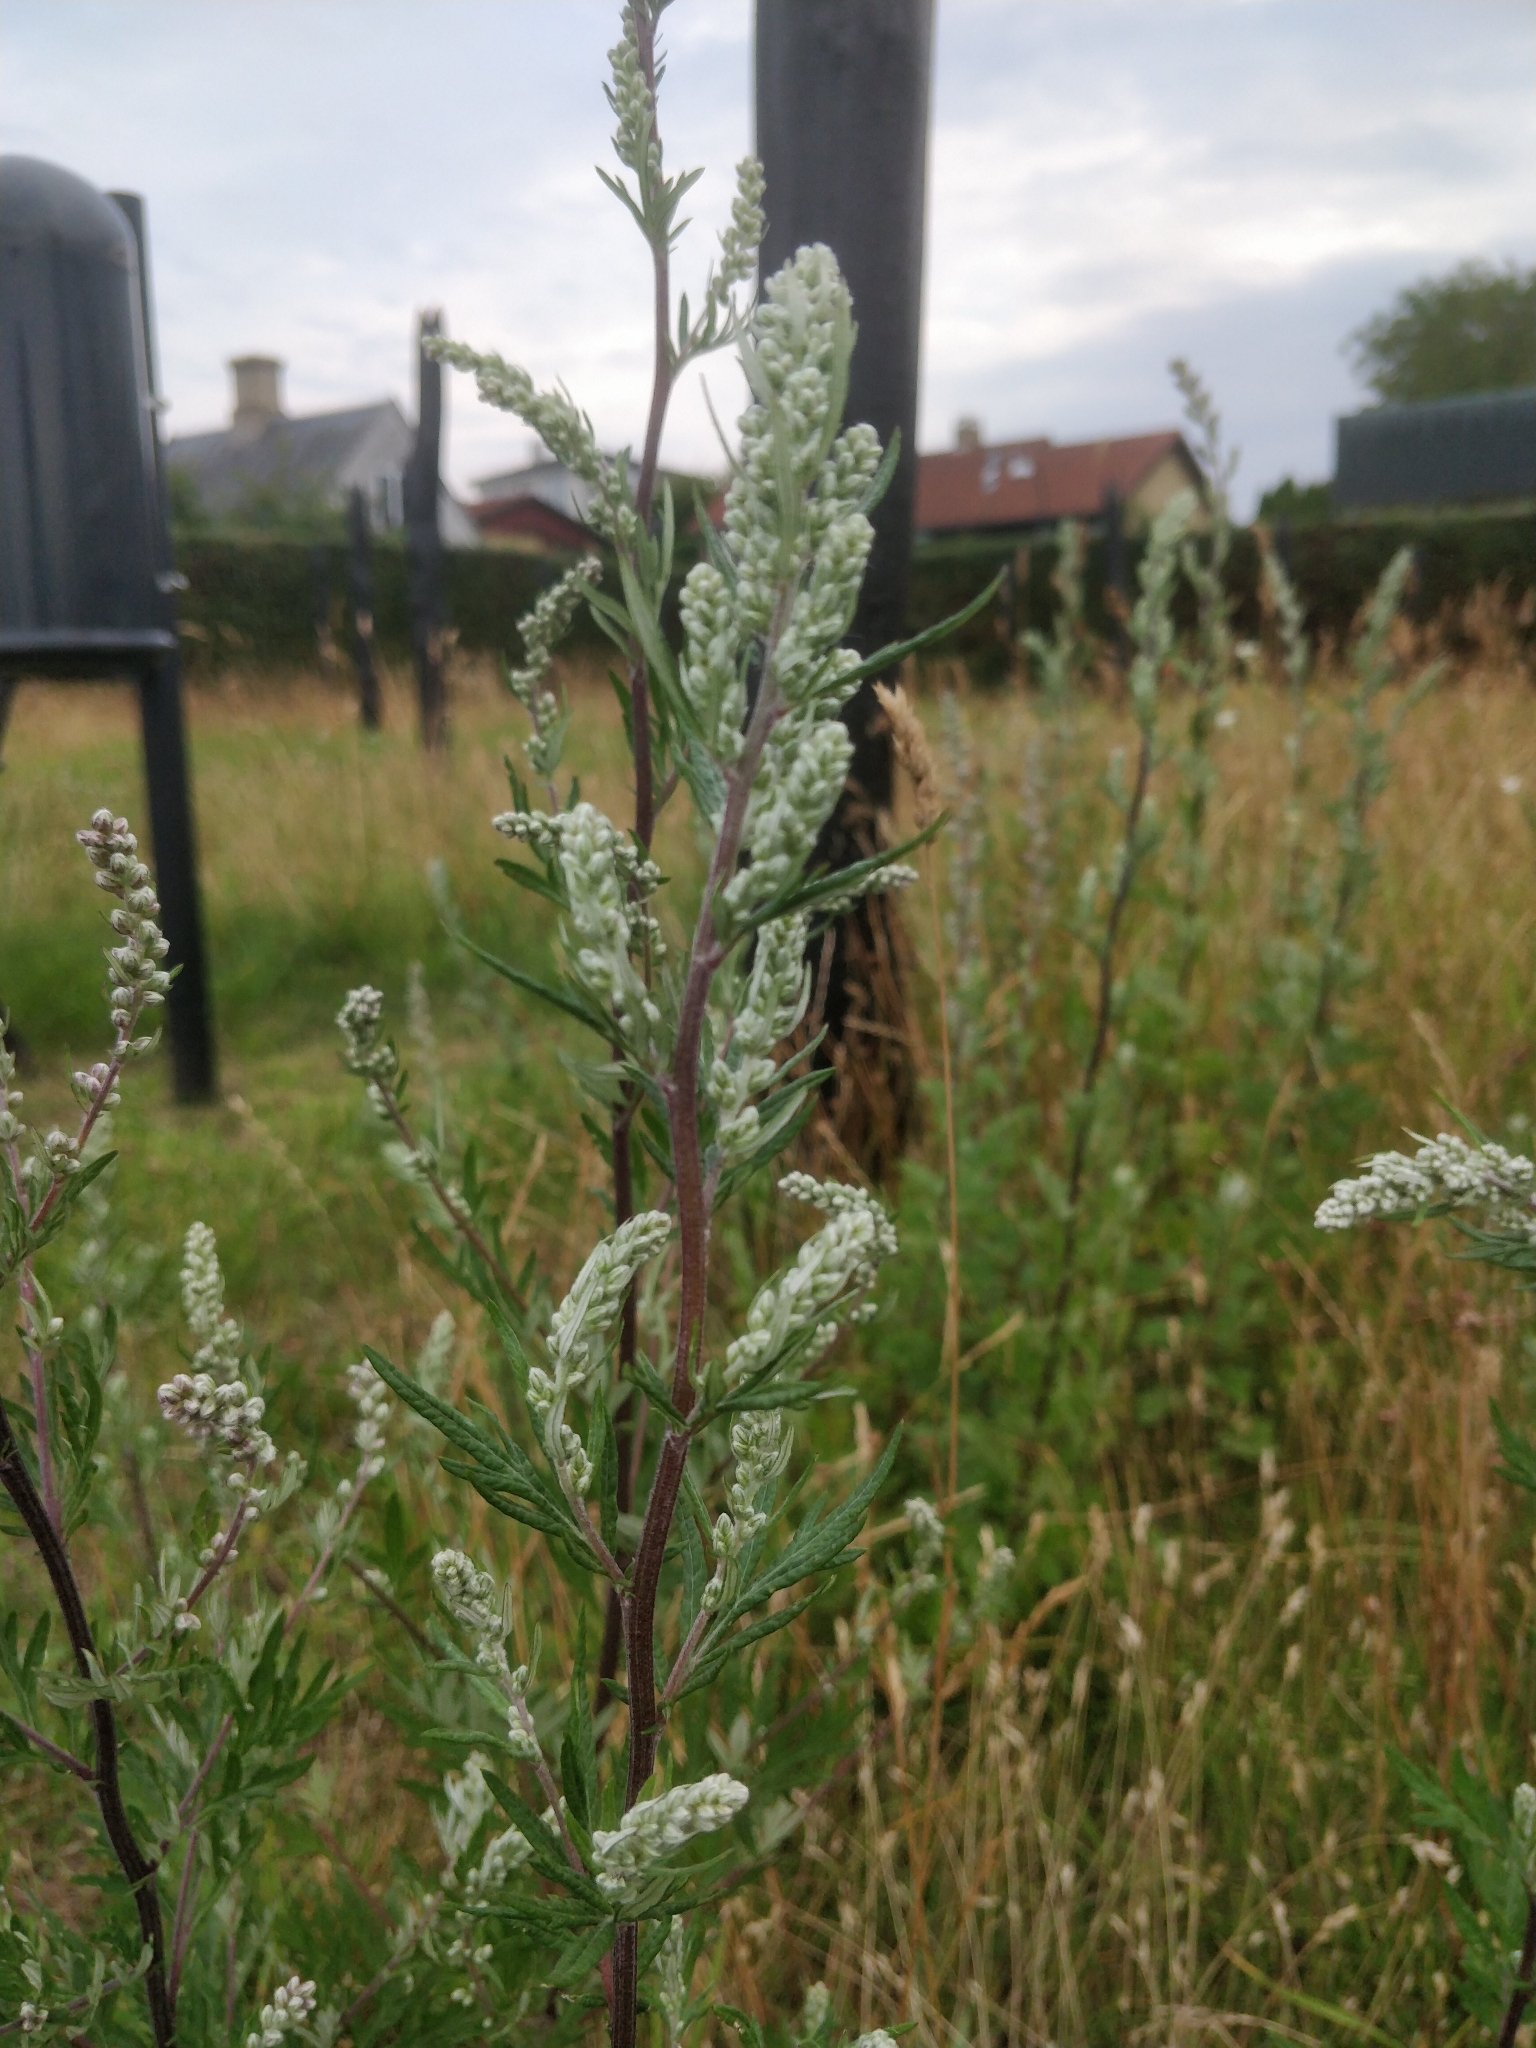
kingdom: Plantae
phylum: Tracheophyta
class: Magnoliopsida
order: Asterales
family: Asteraceae
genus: Artemisia
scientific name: Artemisia vulgaris
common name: Mugwort
